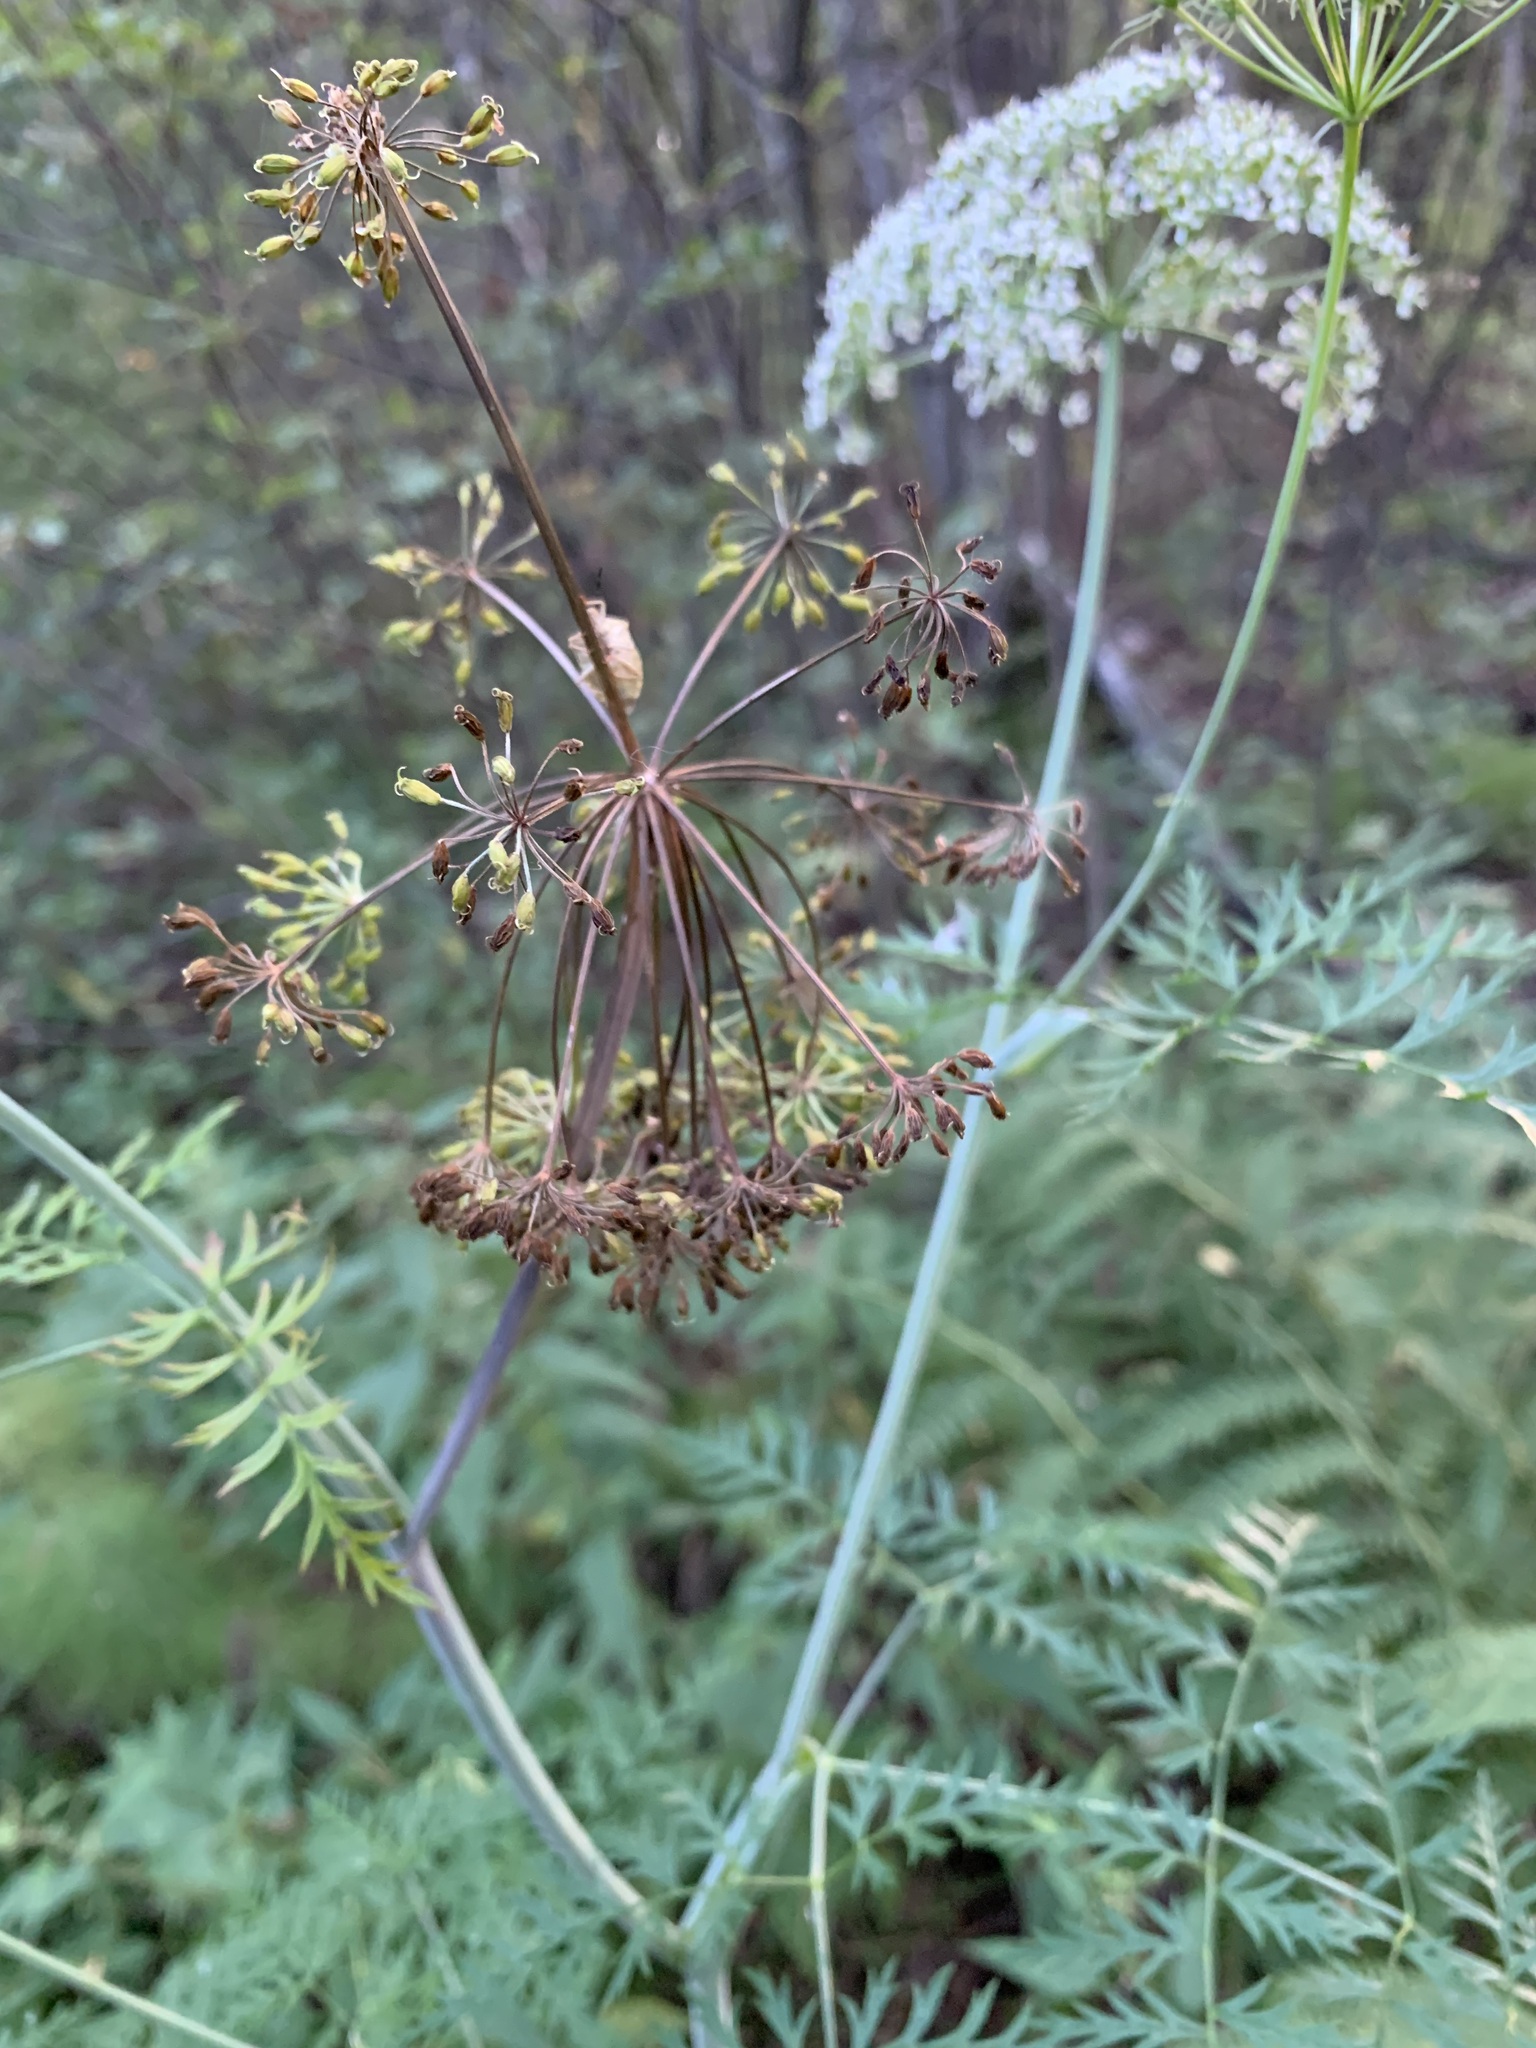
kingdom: Plantae
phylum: Tracheophyta
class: Magnoliopsida
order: Apiales
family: Apiaceae
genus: Conioselinum
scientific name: Conioselinum tataricum
